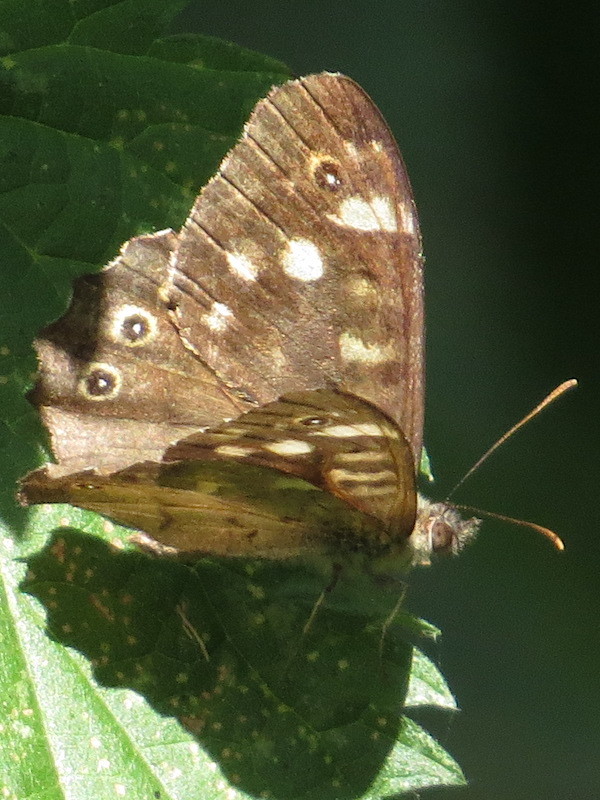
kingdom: Animalia
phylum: Arthropoda
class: Insecta
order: Lepidoptera
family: Nymphalidae
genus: Pararge
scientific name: Pararge aegeria
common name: Speckled wood
